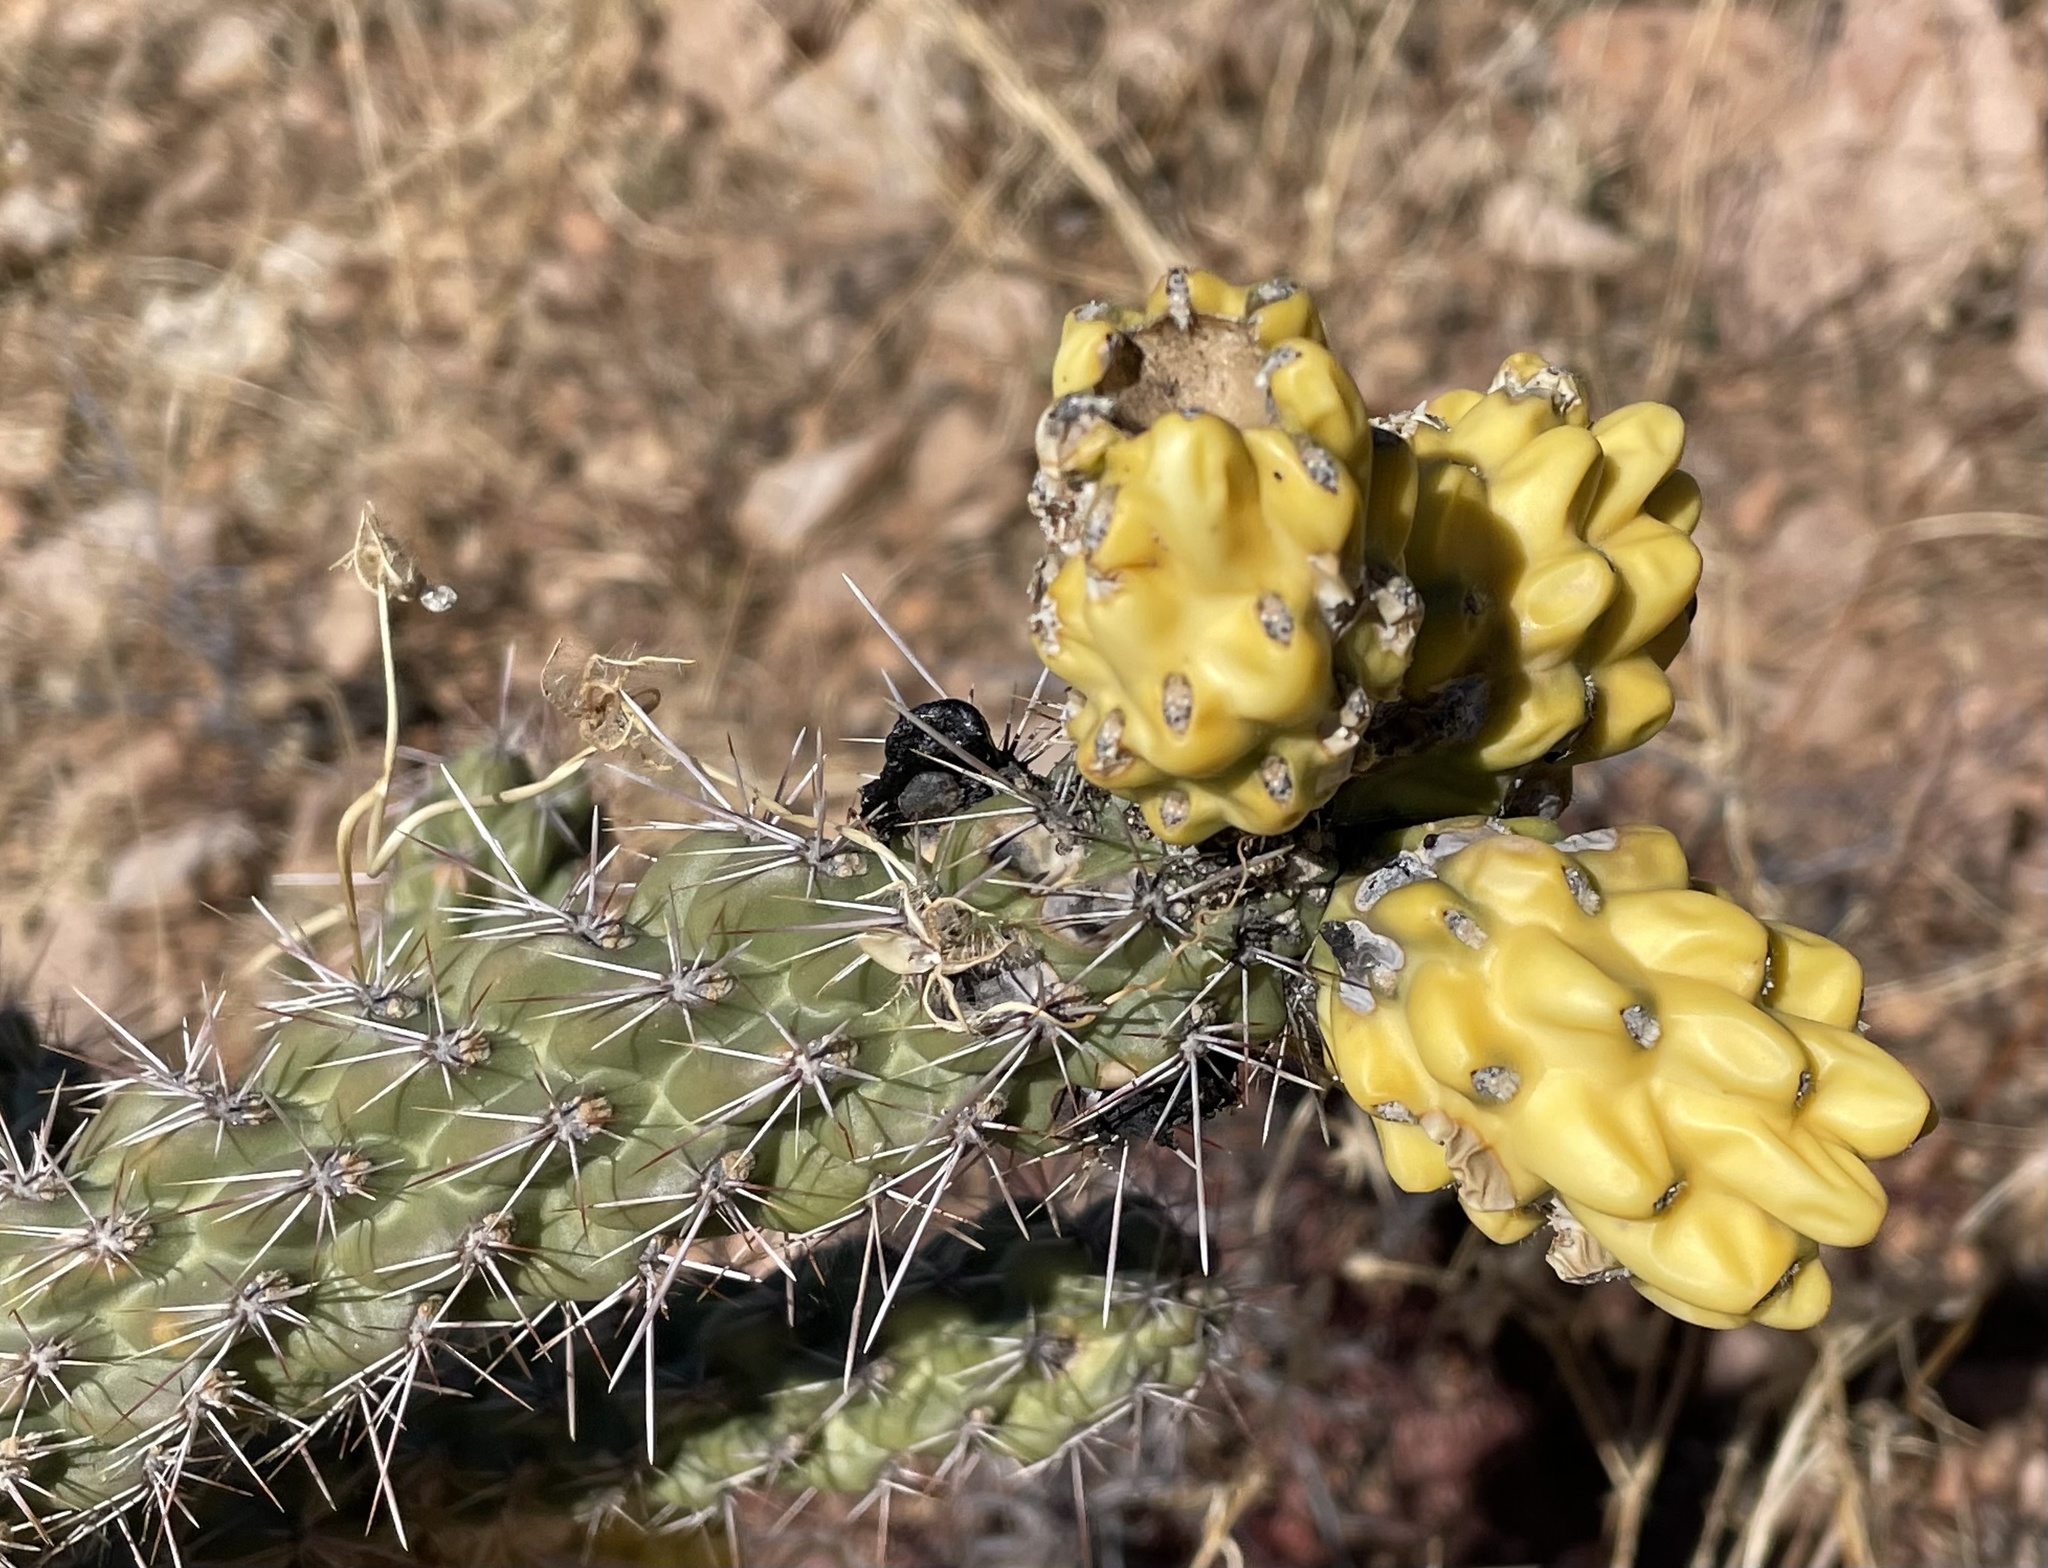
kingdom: Plantae
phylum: Tracheophyta
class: Magnoliopsida
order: Caryophyllales
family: Cactaceae
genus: Cylindropuntia
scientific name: Cylindropuntia imbricata
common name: Candelabrum cactus
